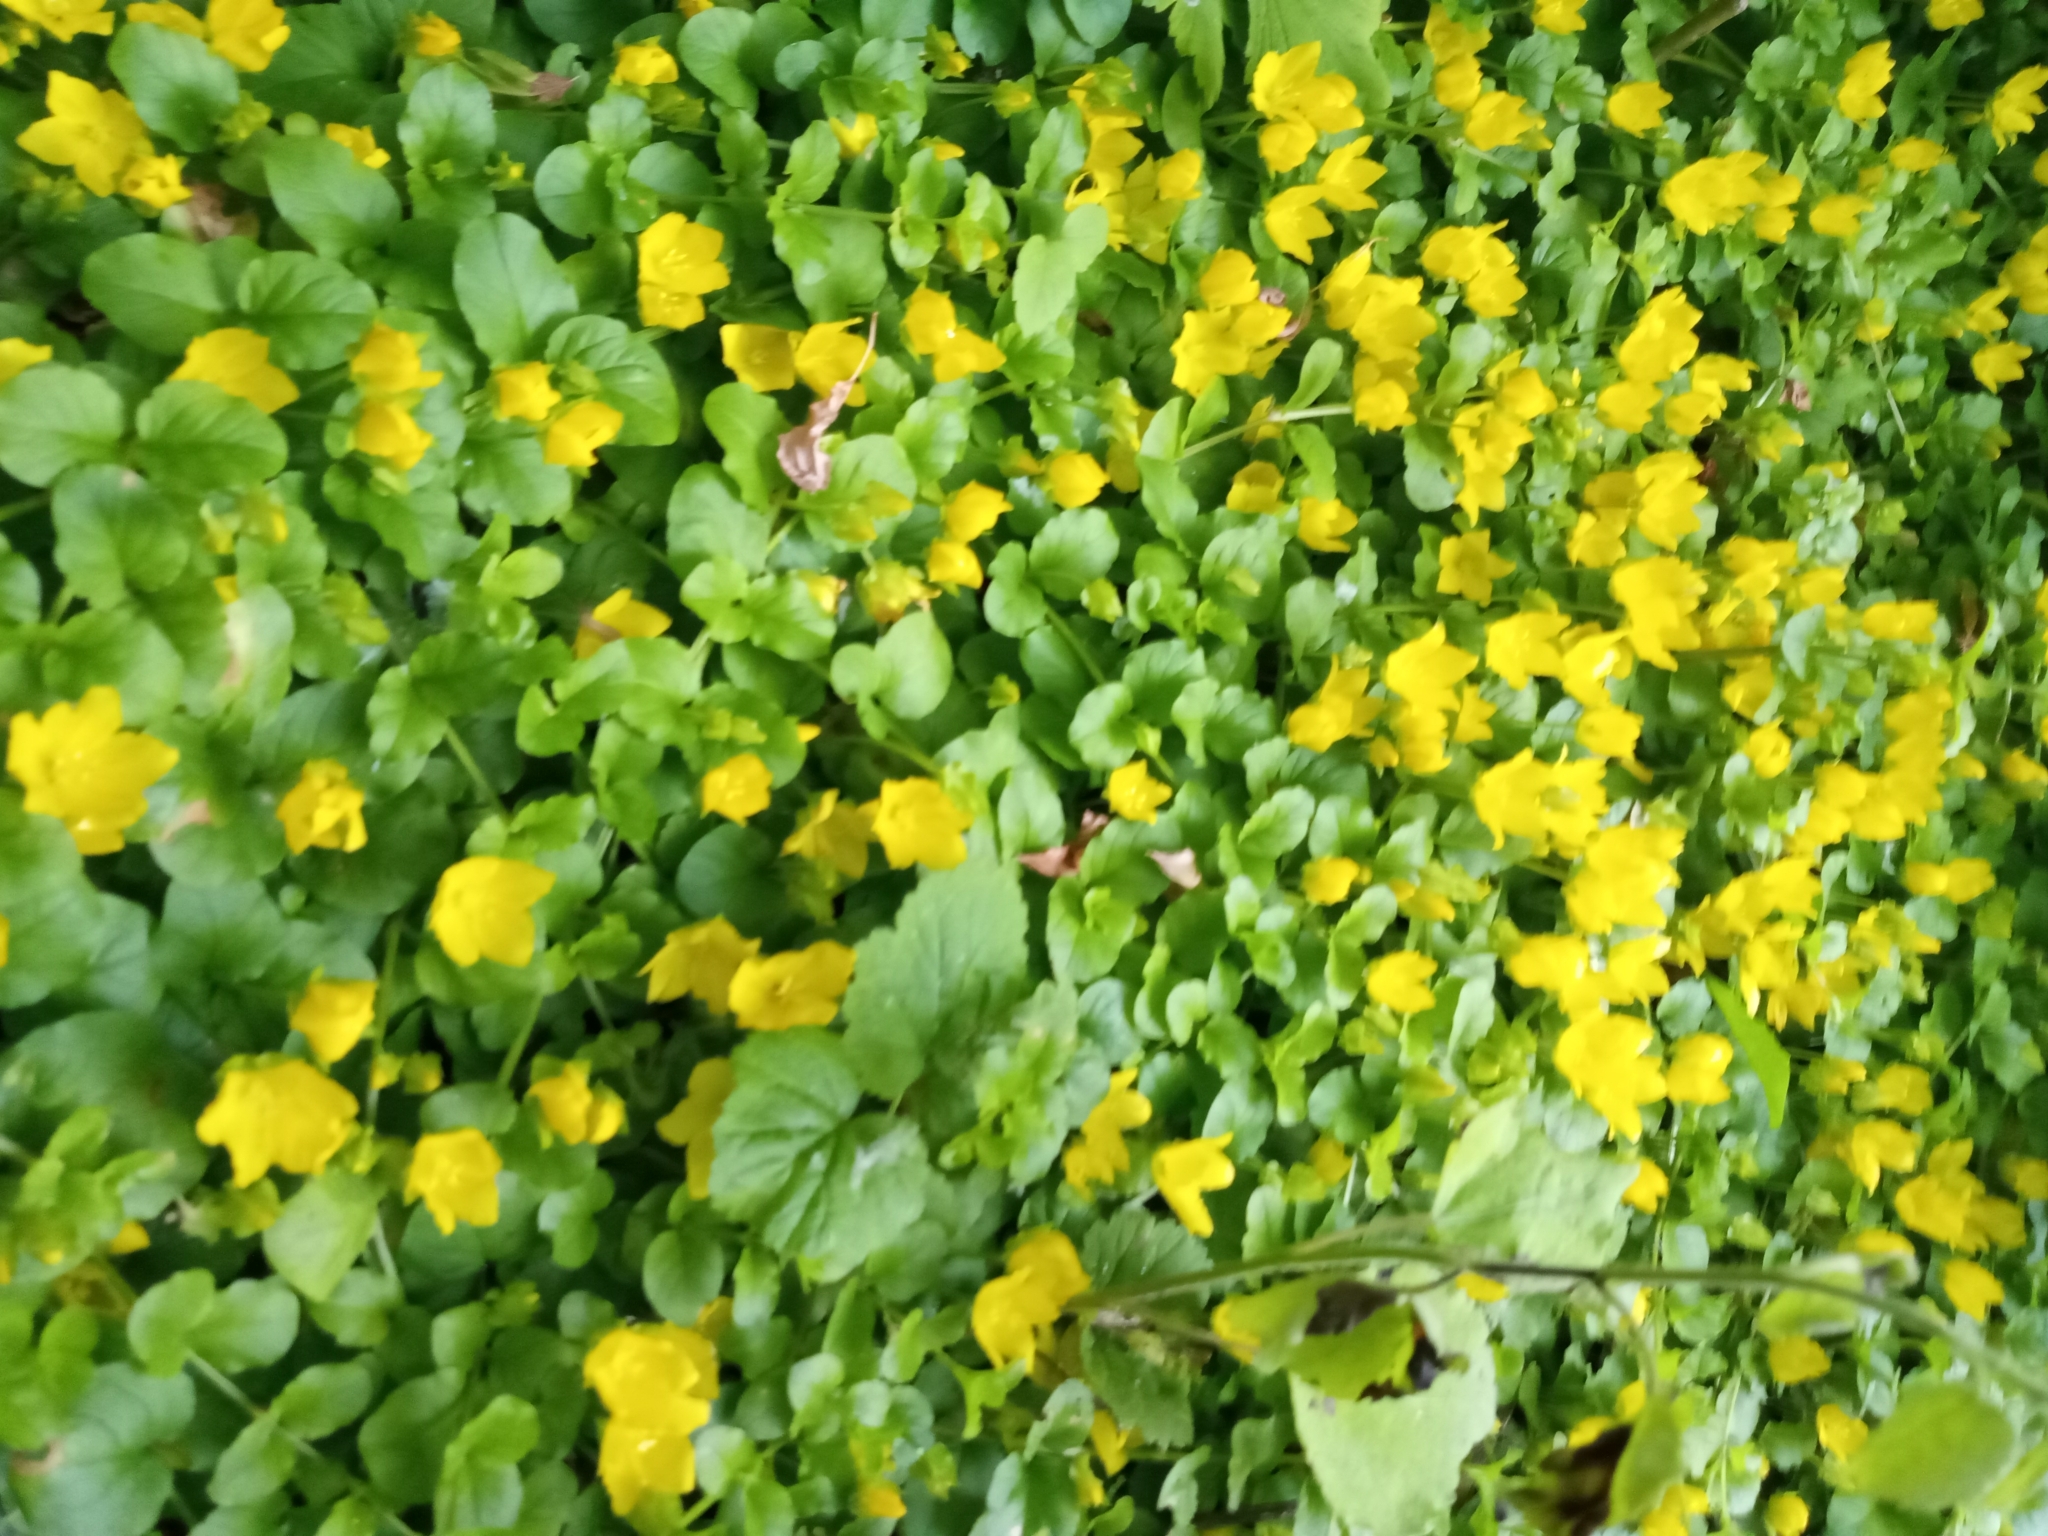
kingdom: Plantae
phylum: Tracheophyta
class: Magnoliopsida
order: Ericales
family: Primulaceae
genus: Lysimachia
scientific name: Lysimachia nummularia
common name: Moneywort
